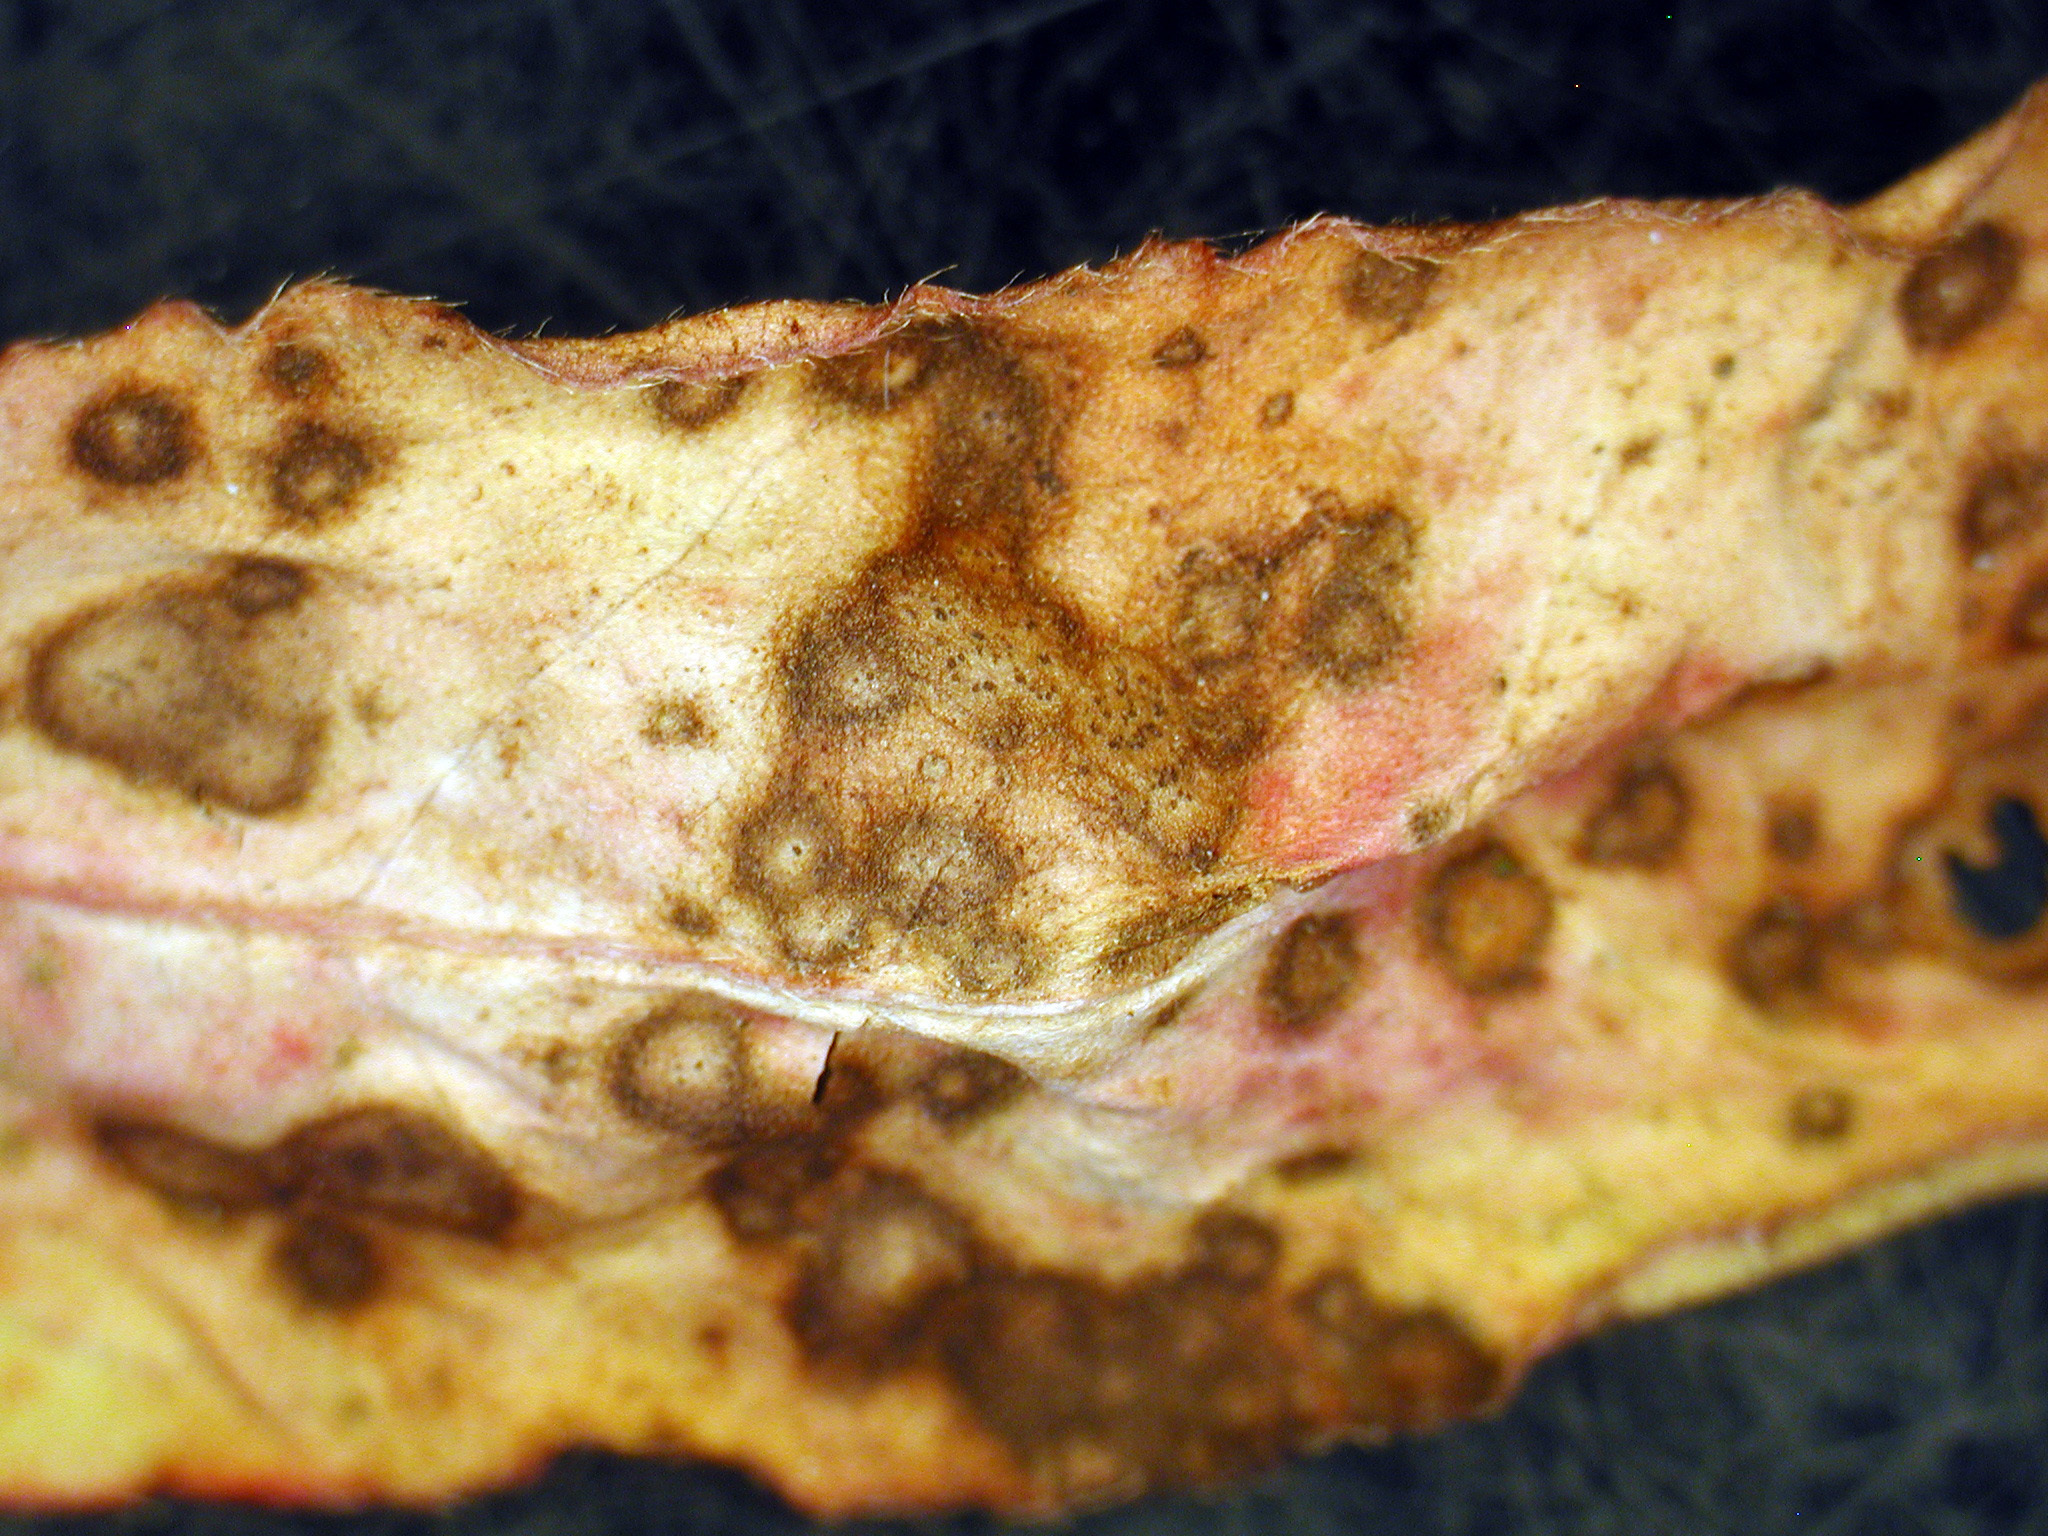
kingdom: Fungi
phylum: Ascomycota
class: Dothideomycetes
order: Mycosphaerellales
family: Mycosphaerellaceae
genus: Septoria
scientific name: Septoria polygonorum
